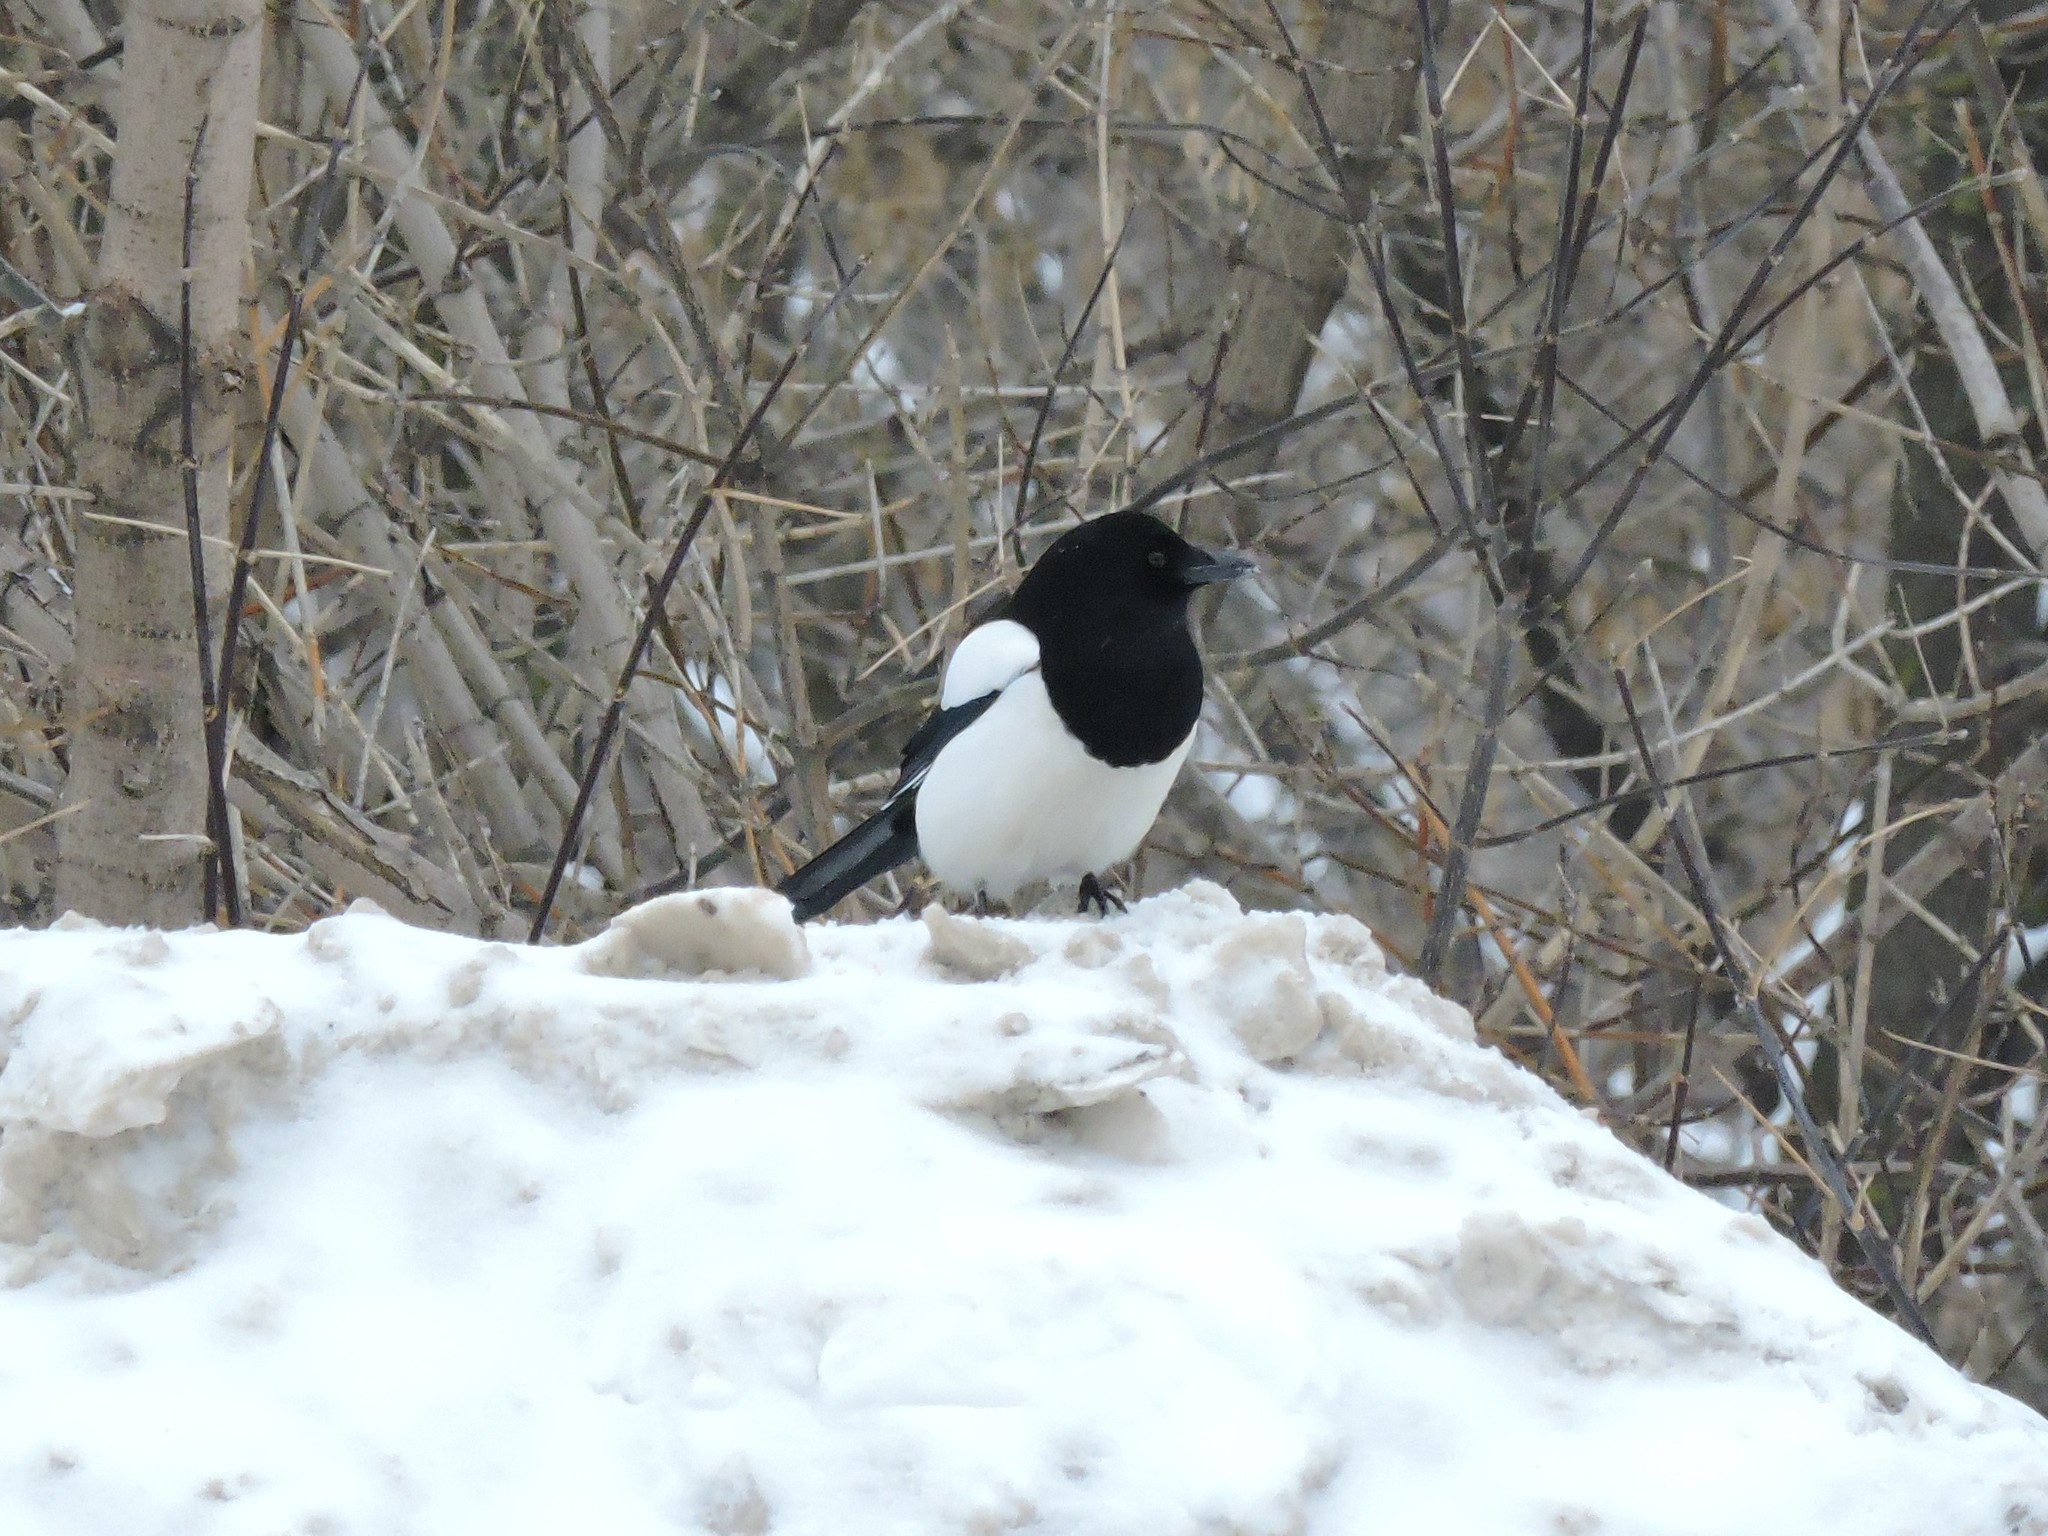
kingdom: Animalia
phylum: Chordata
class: Aves
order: Passeriformes
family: Corvidae
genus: Pica
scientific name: Pica pica
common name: Eurasian magpie
